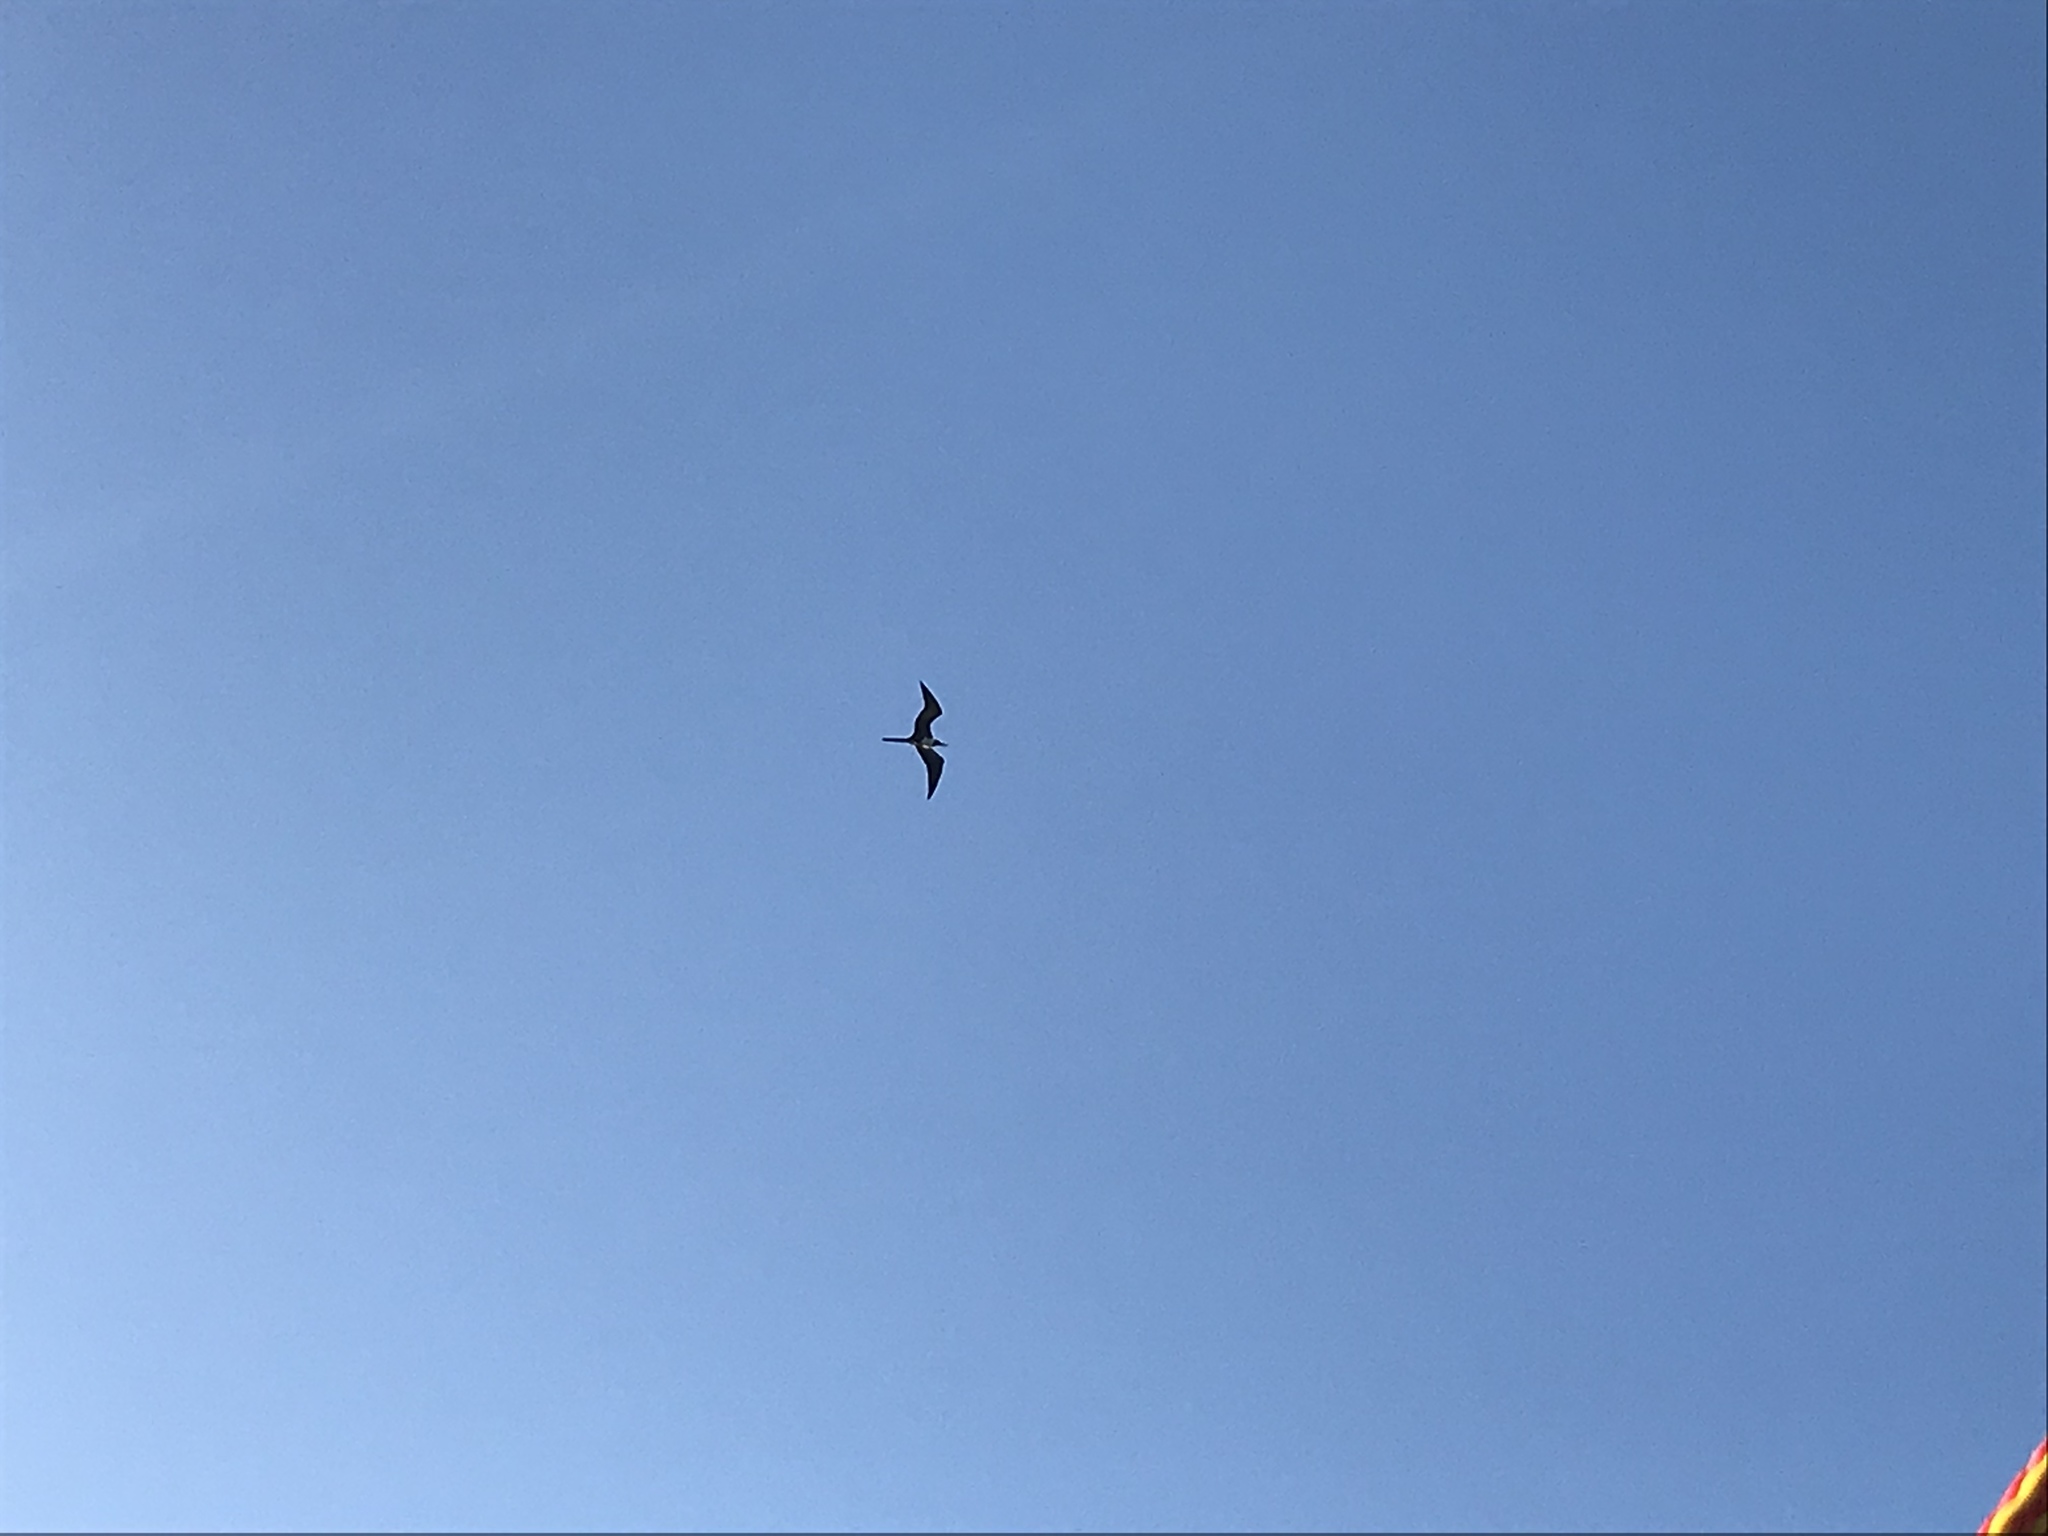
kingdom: Animalia
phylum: Chordata
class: Aves
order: Suliformes
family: Fregatidae
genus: Fregata
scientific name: Fregata magnificens
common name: Magnificent frigatebird
